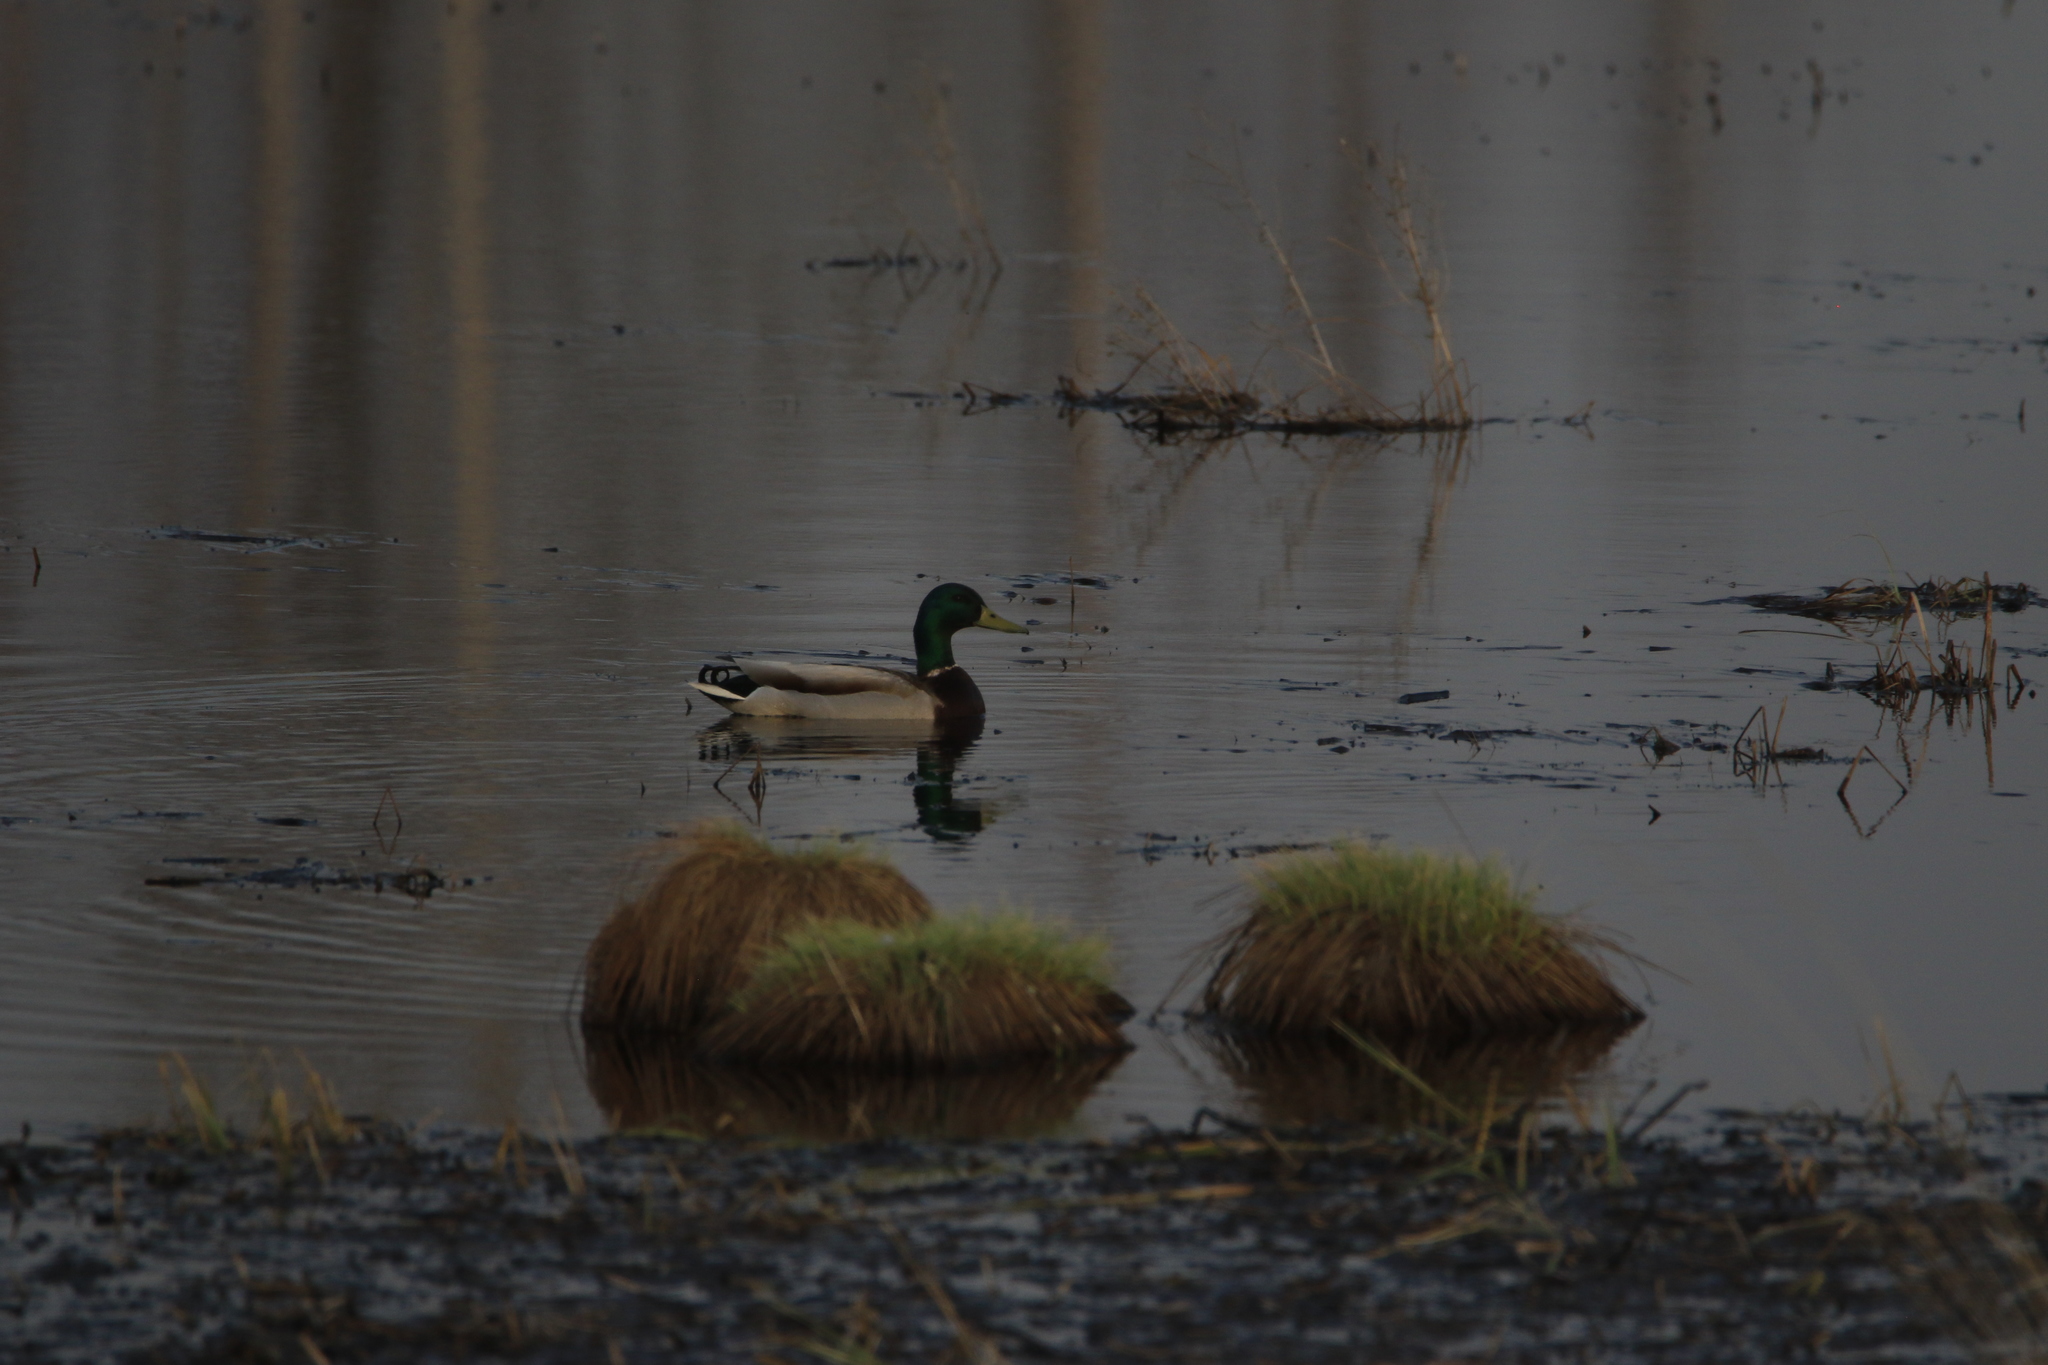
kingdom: Animalia
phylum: Chordata
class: Aves
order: Anseriformes
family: Anatidae
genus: Anas
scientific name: Anas platyrhynchos
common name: Mallard
